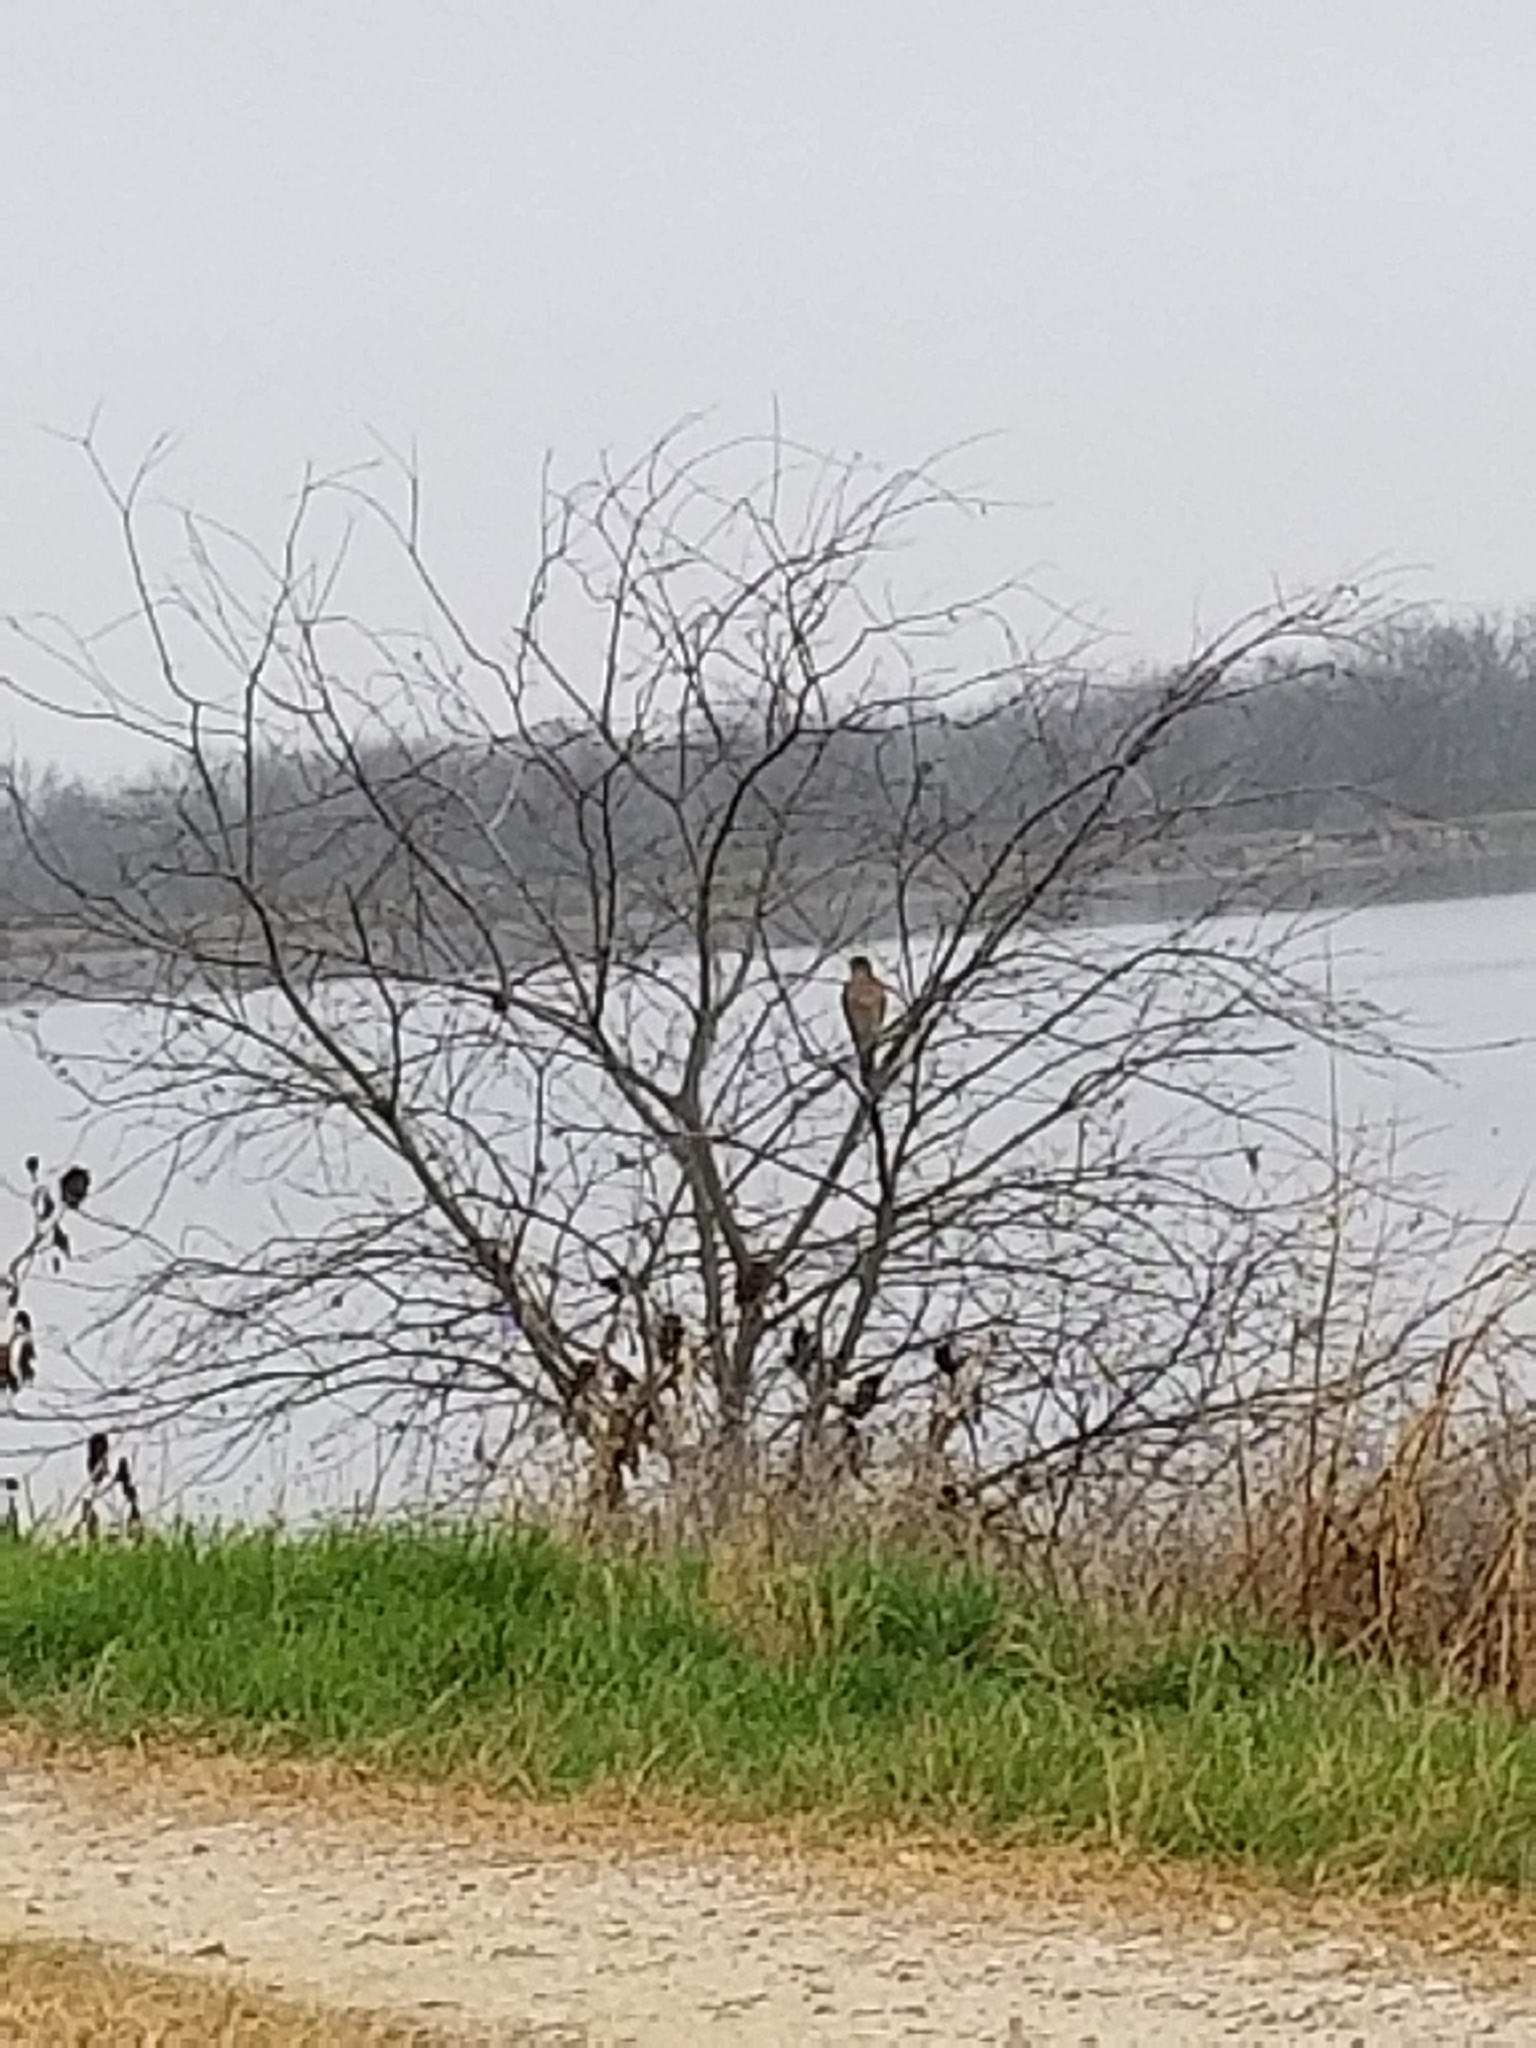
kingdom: Animalia
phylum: Chordata
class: Aves
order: Accipitriformes
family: Accipitridae
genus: Accipiter
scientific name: Accipiter cooperii
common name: Cooper's hawk
